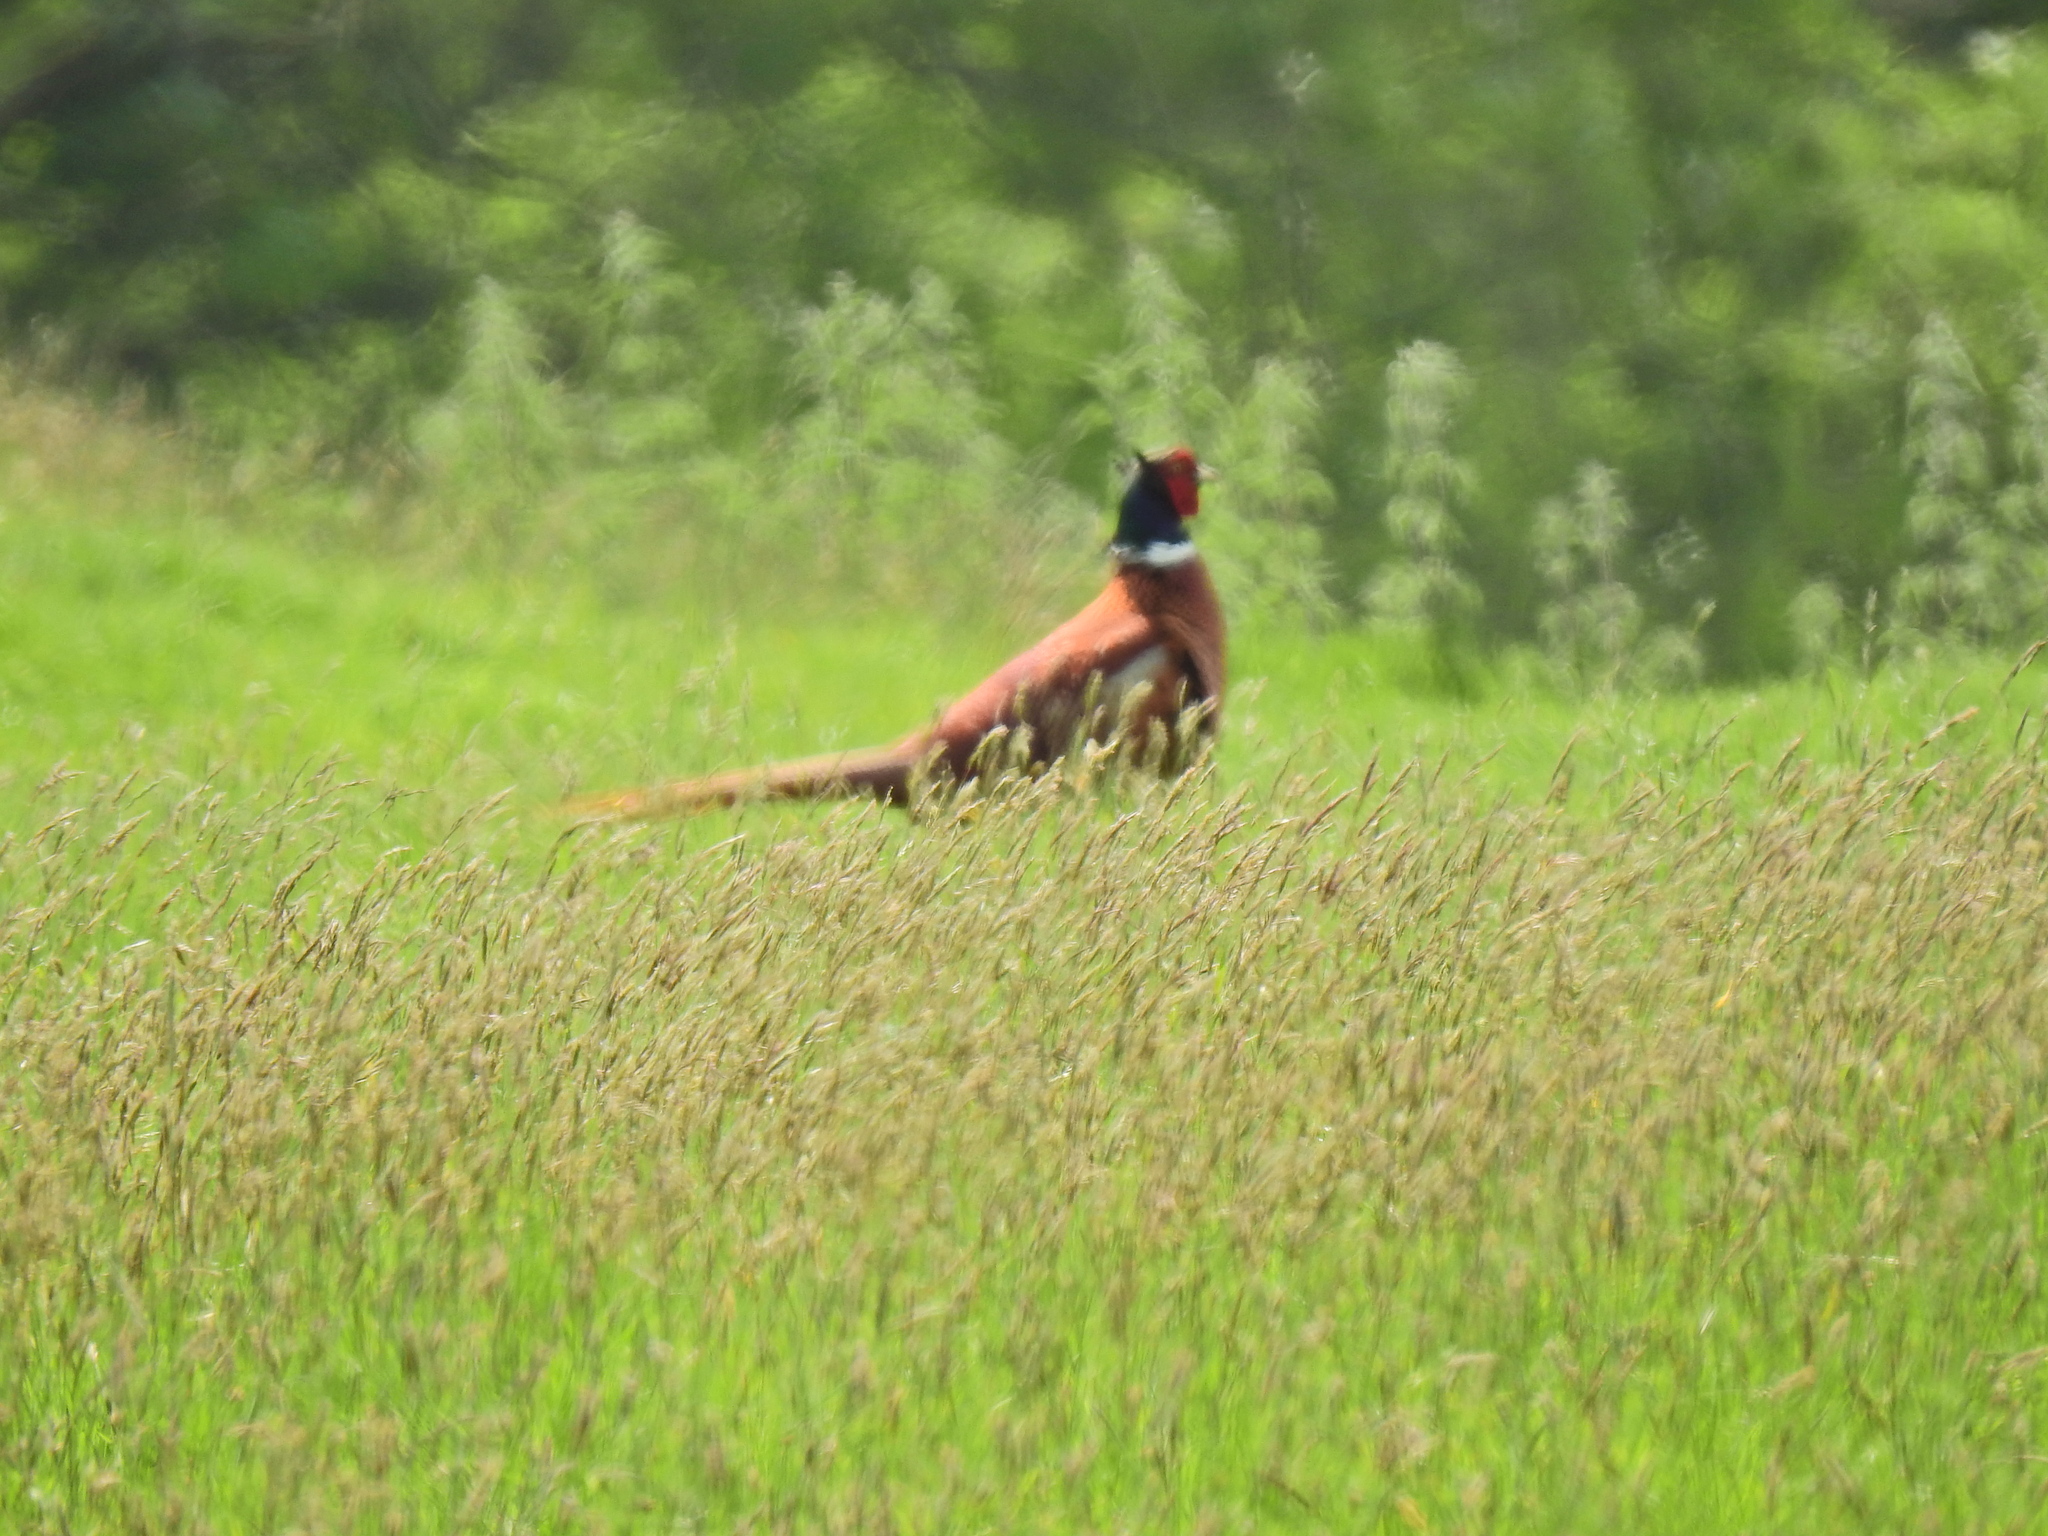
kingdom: Animalia
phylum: Chordata
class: Aves
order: Galliformes
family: Phasianidae
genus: Phasianus
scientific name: Phasianus colchicus
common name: Common pheasant
